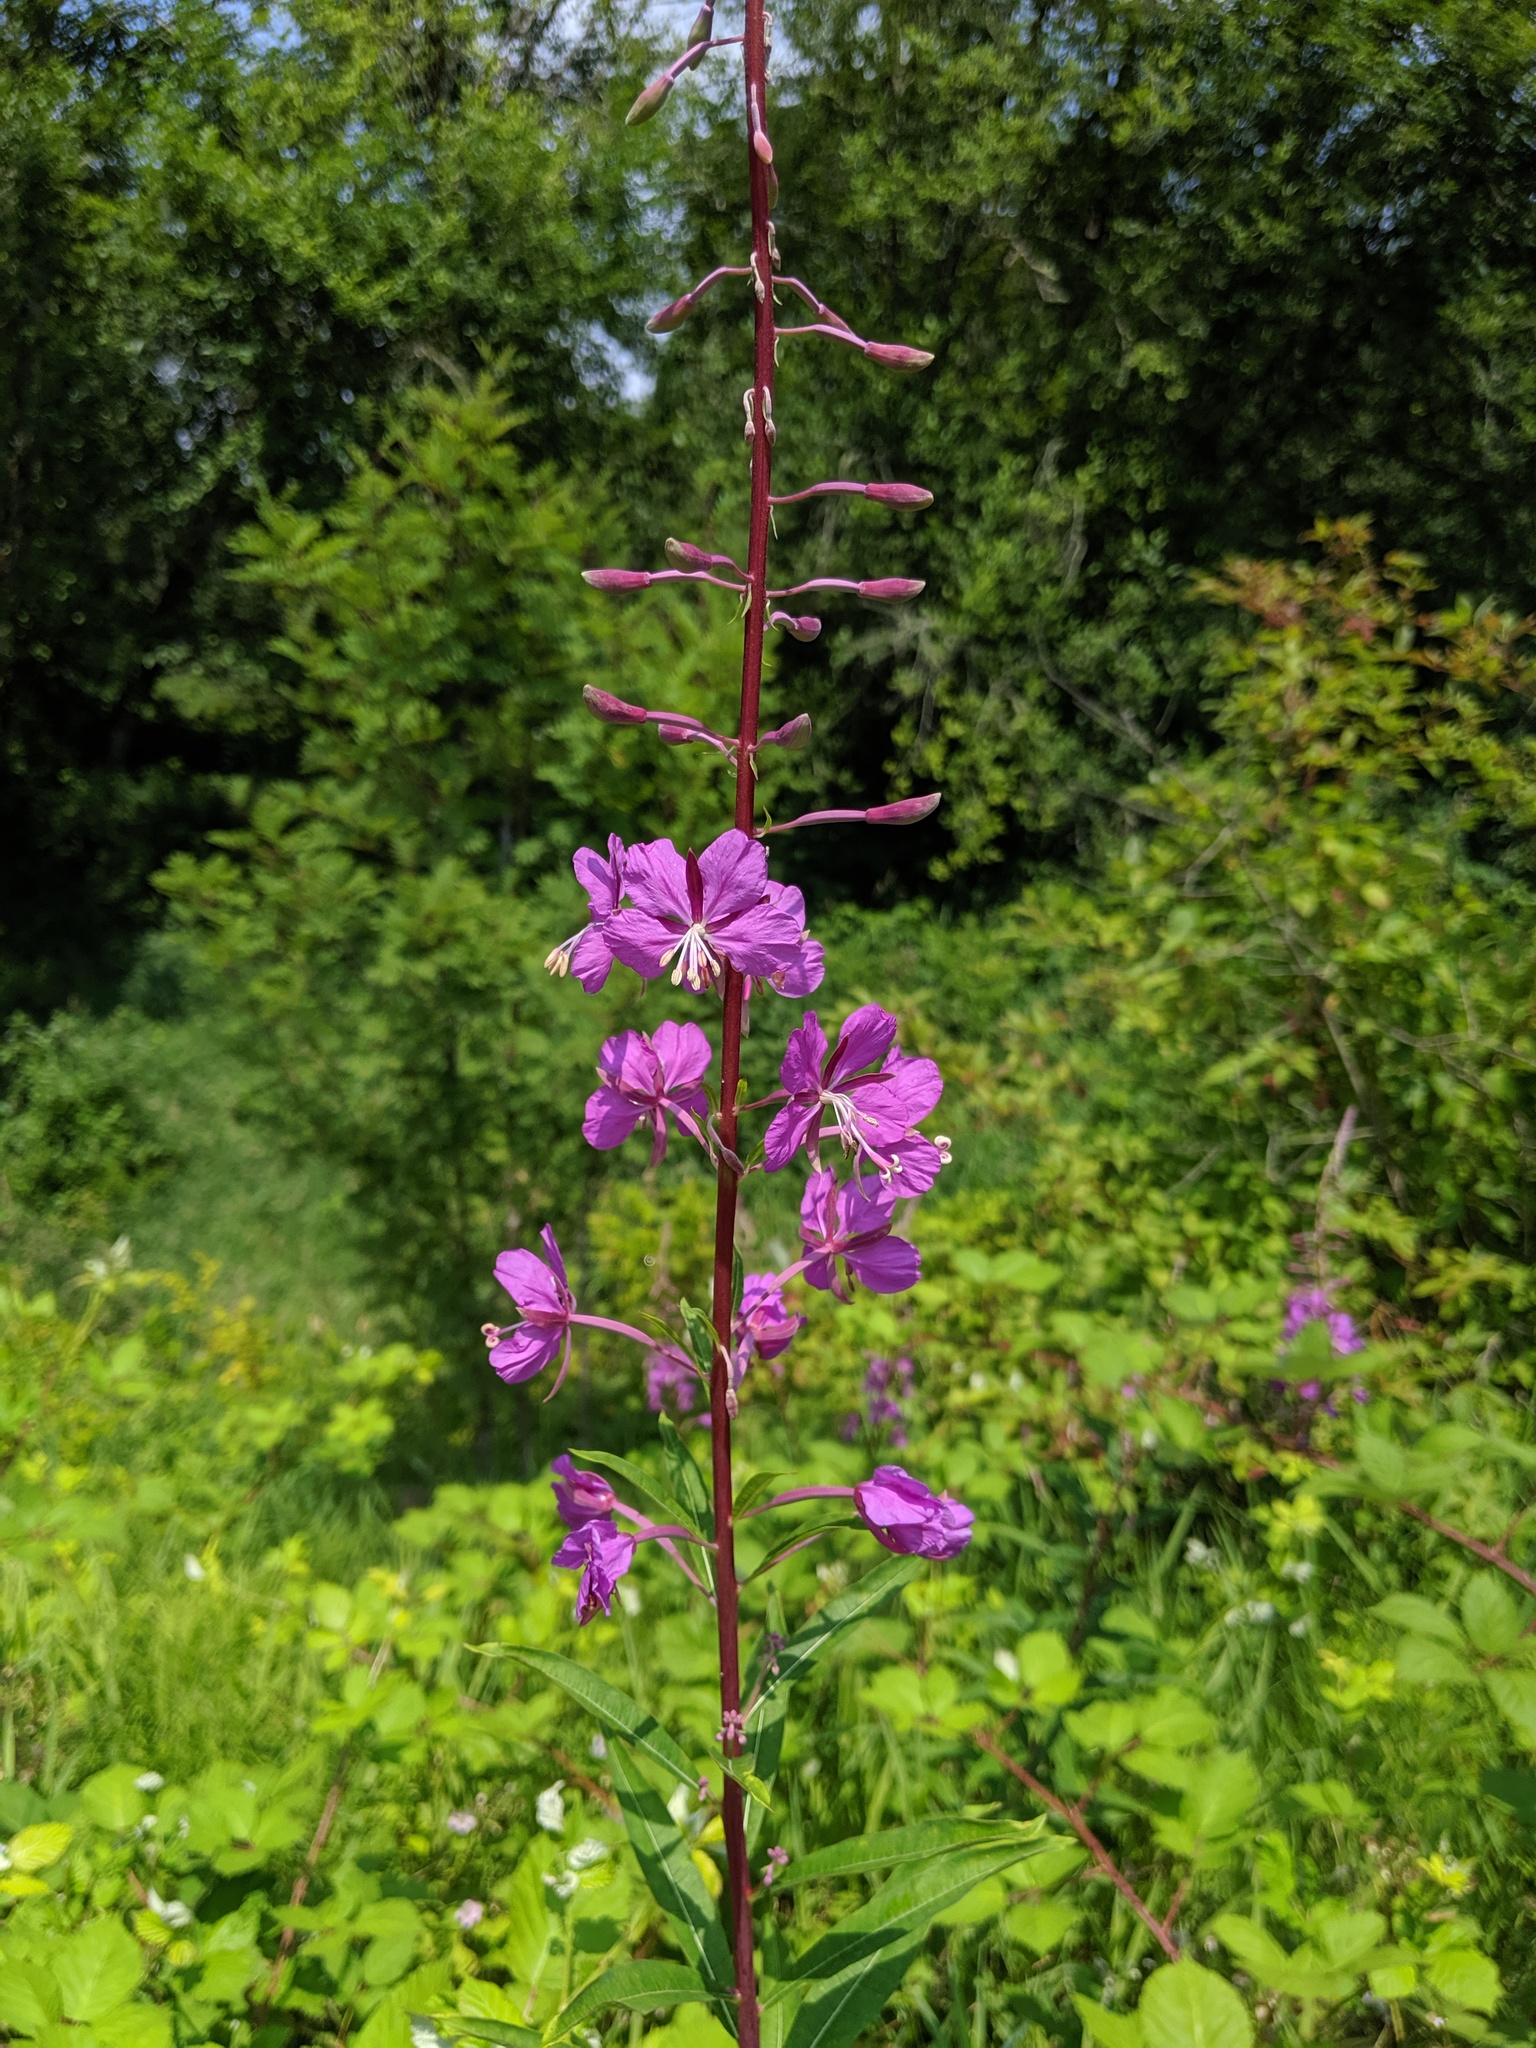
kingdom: Plantae
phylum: Tracheophyta
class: Magnoliopsida
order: Myrtales
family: Onagraceae
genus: Chamaenerion
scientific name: Chamaenerion angustifolium
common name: Fireweed
